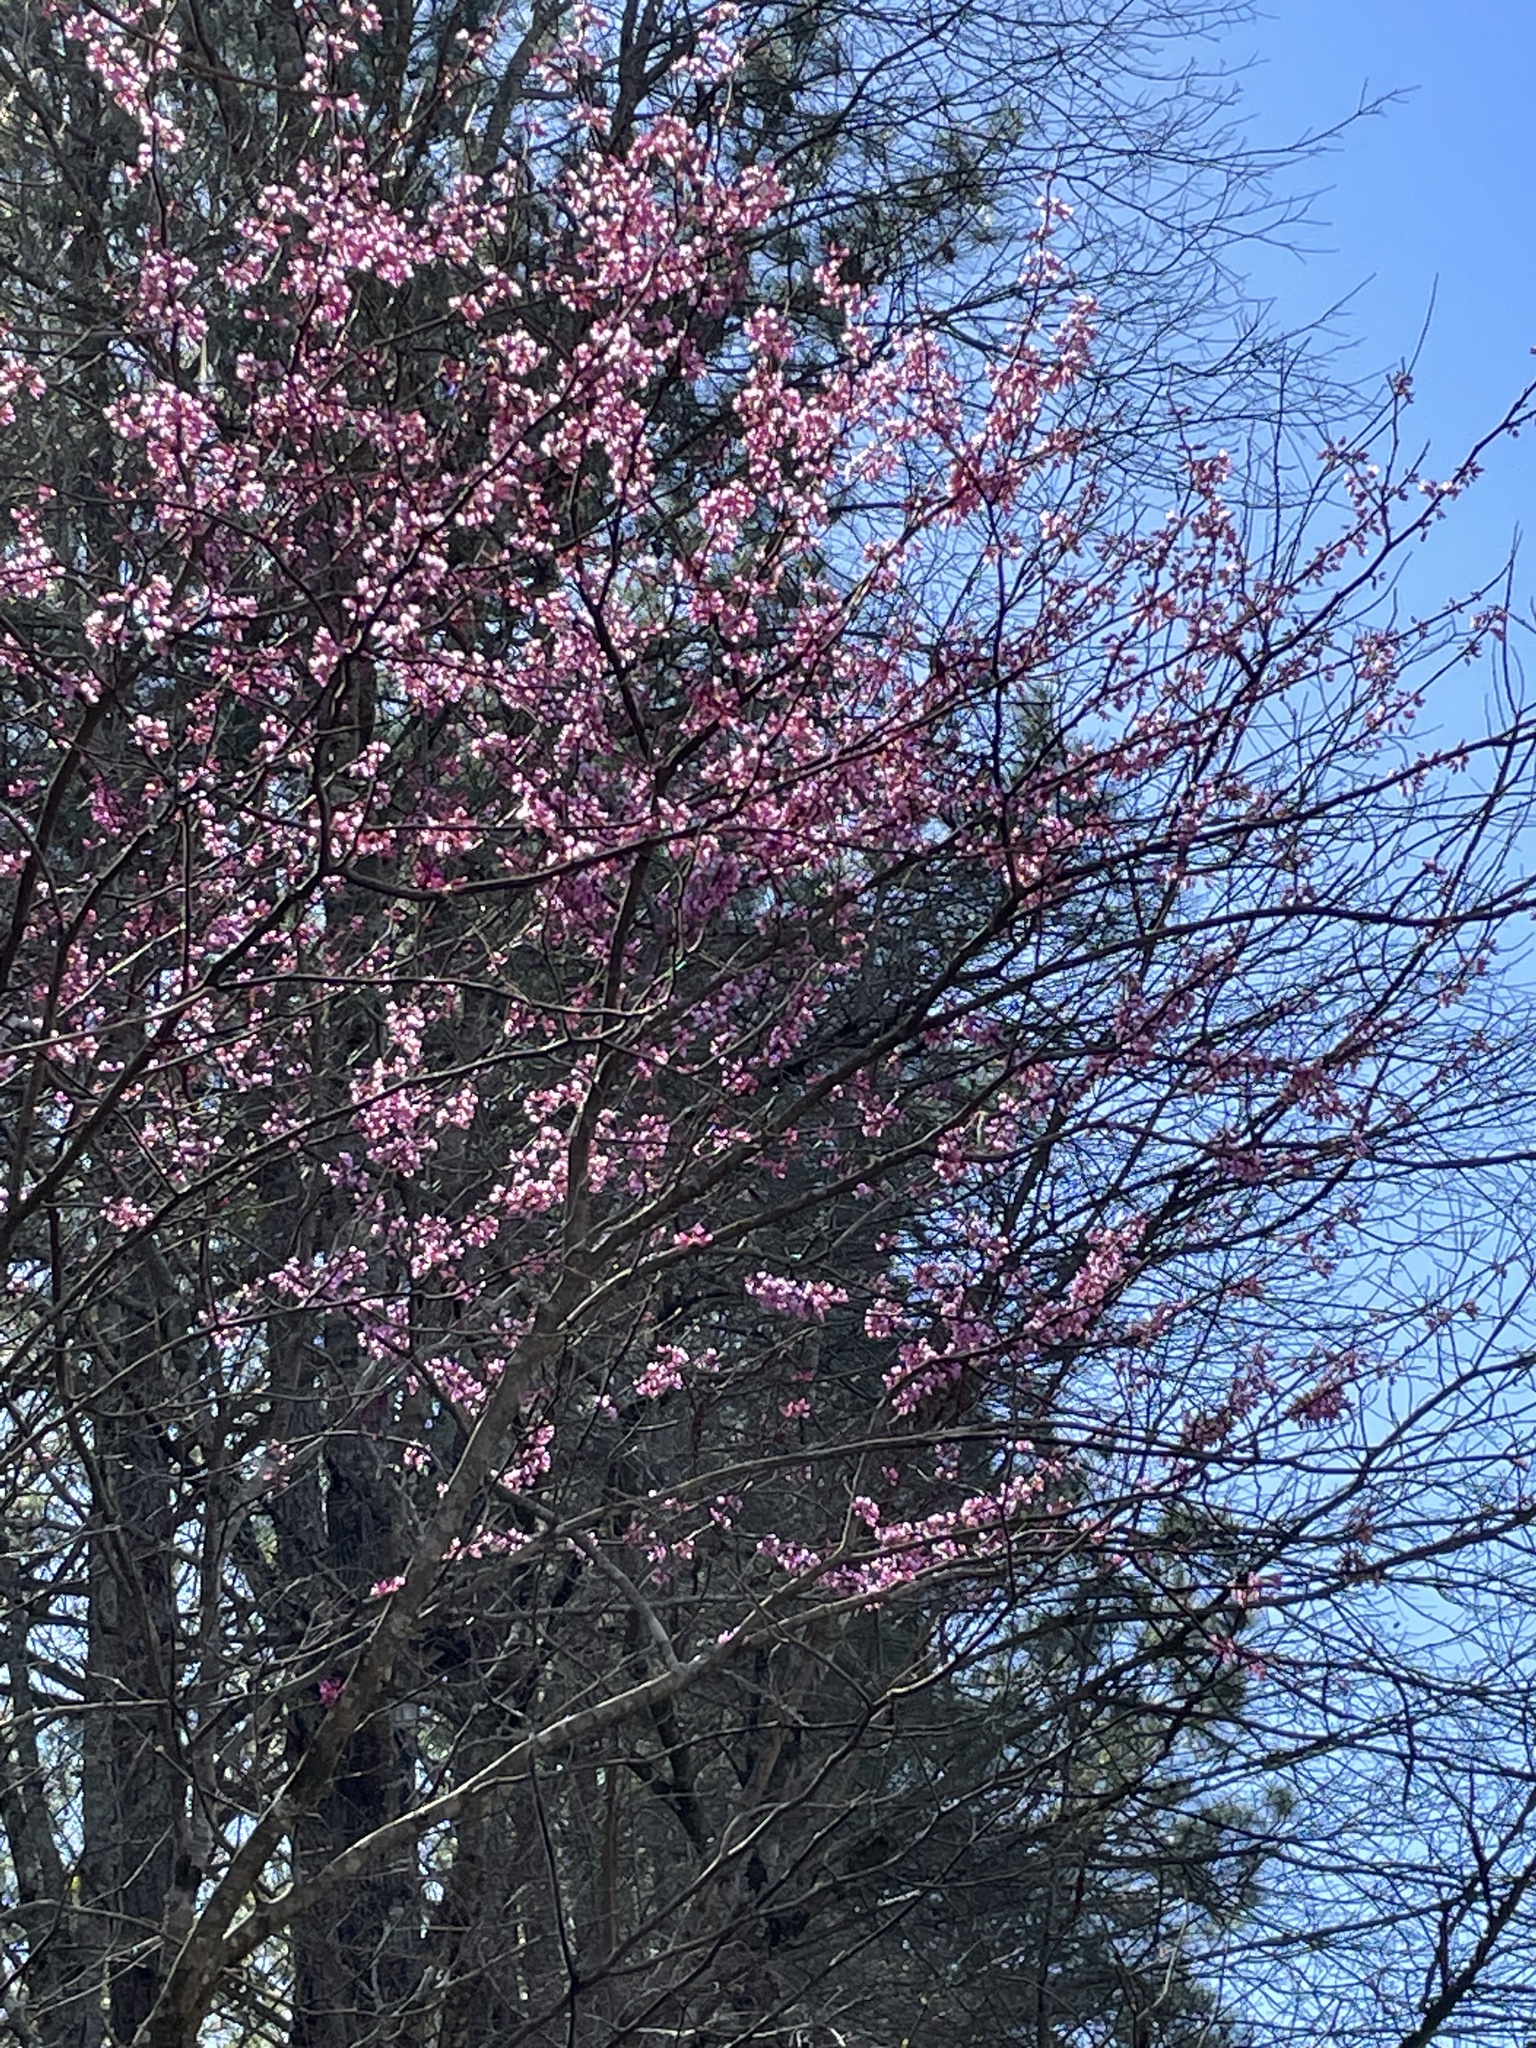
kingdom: Plantae
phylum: Tracheophyta
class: Magnoliopsida
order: Fabales
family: Fabaceae
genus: Cercis
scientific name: Cercis canadensis
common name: Eastern redbud
